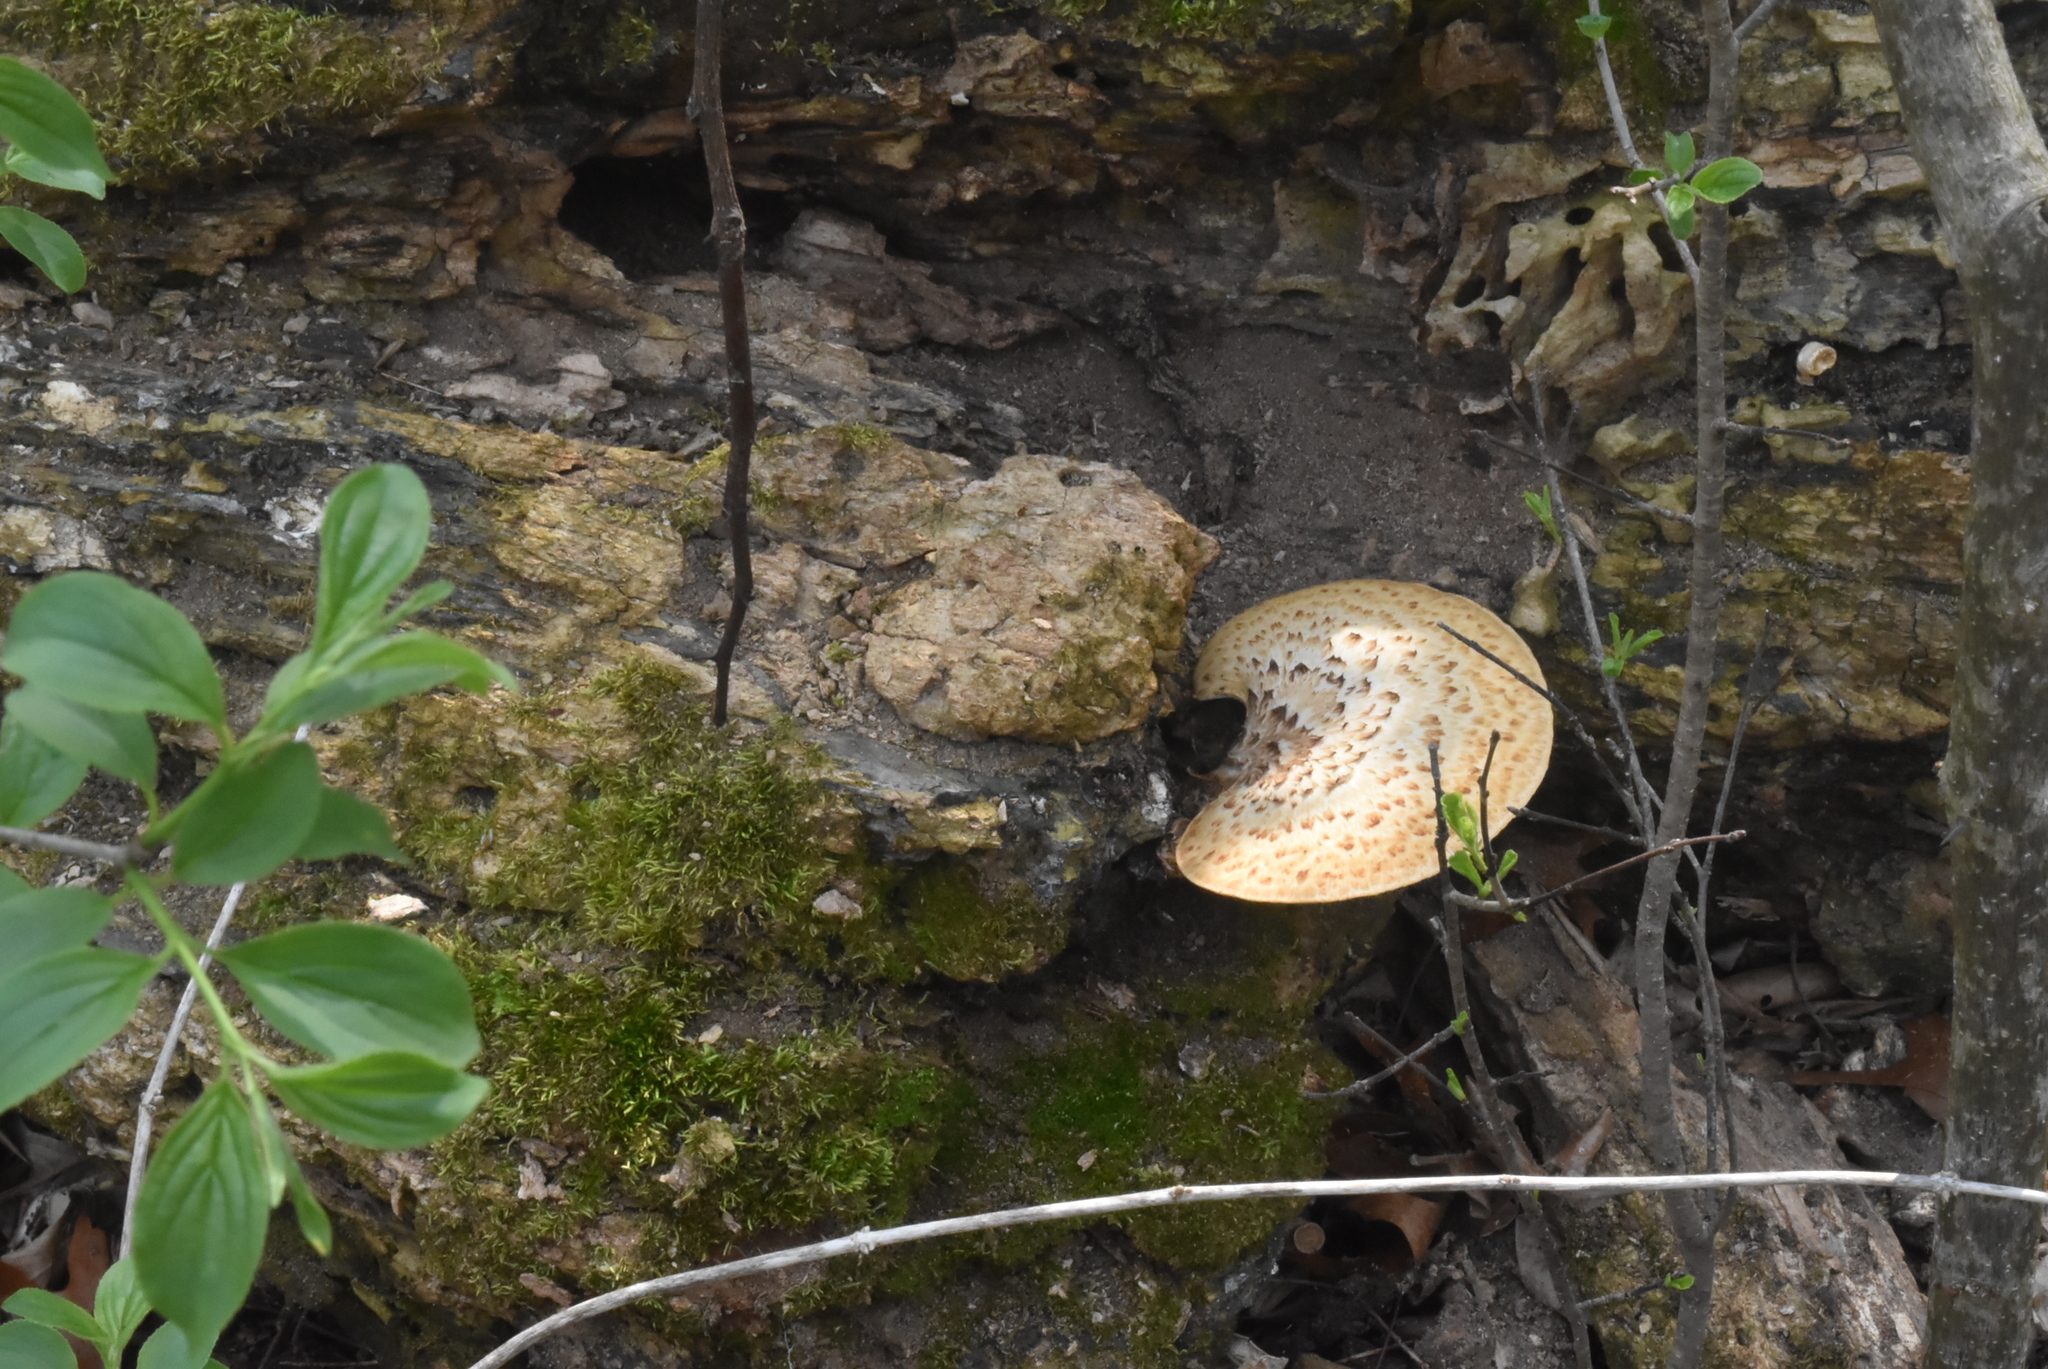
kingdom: Fungi
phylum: Basidiomycota
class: Agaricomycetes
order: Polyporales
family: Polyporaceae
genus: Cerioporus
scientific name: Cerioporus squamosus
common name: Dryad's saddle
